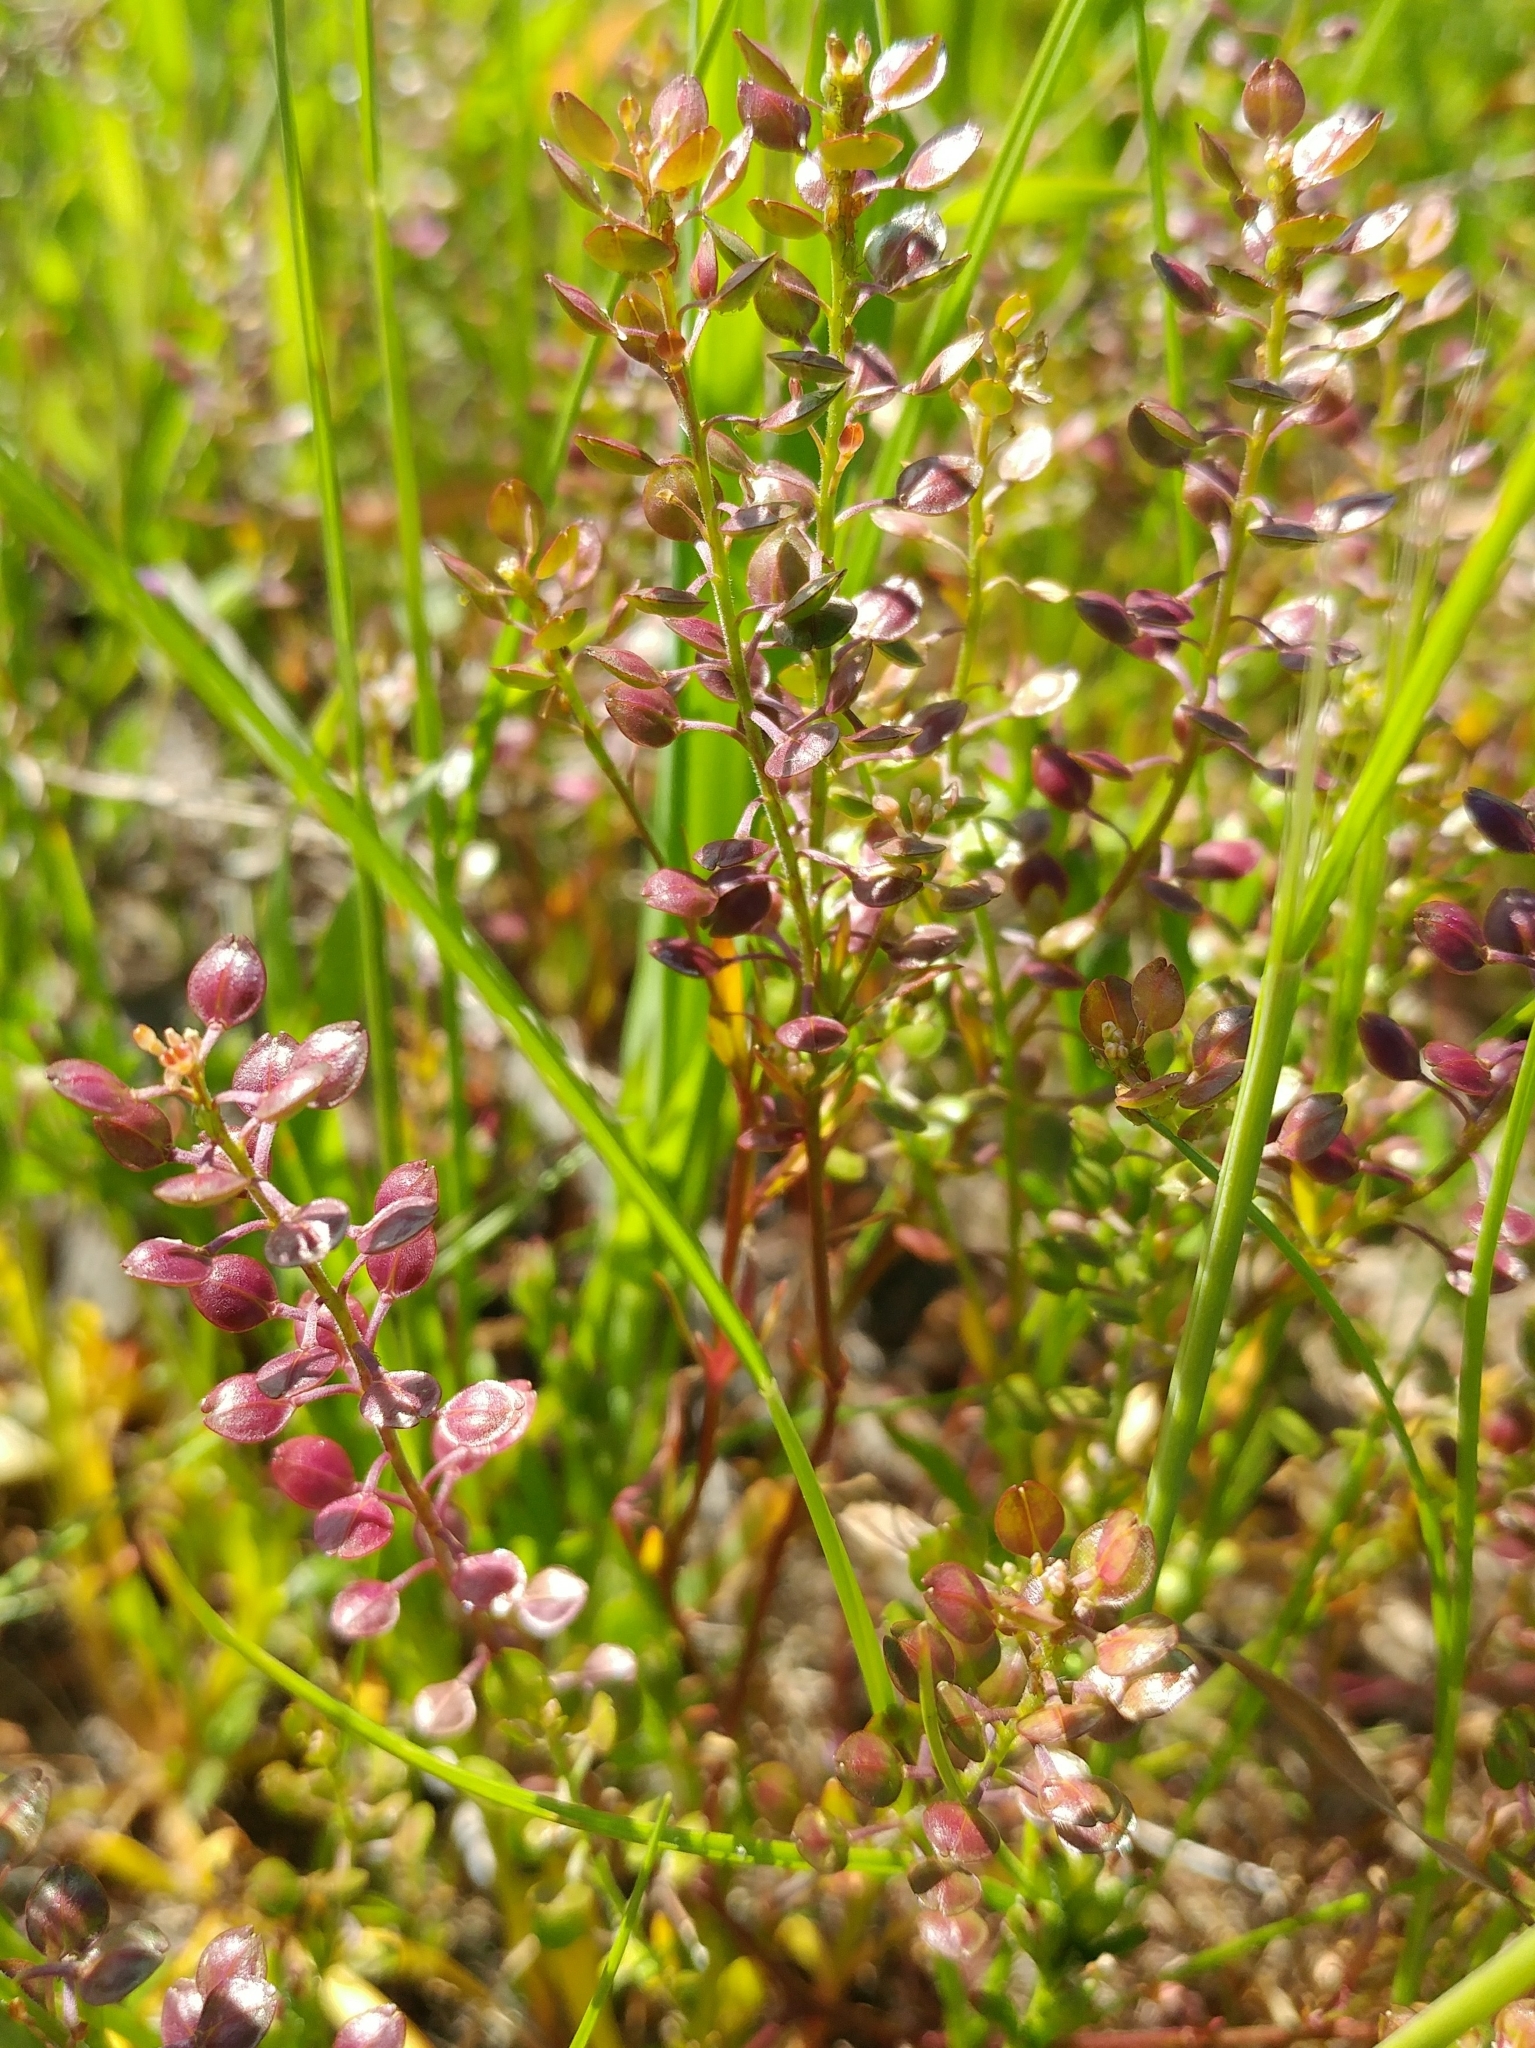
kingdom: Plantae
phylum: Tracheophyta
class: Magnoliopsida
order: Brassicales
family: Brassicaceae
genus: Lepidium
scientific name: Lepidium nitidum
